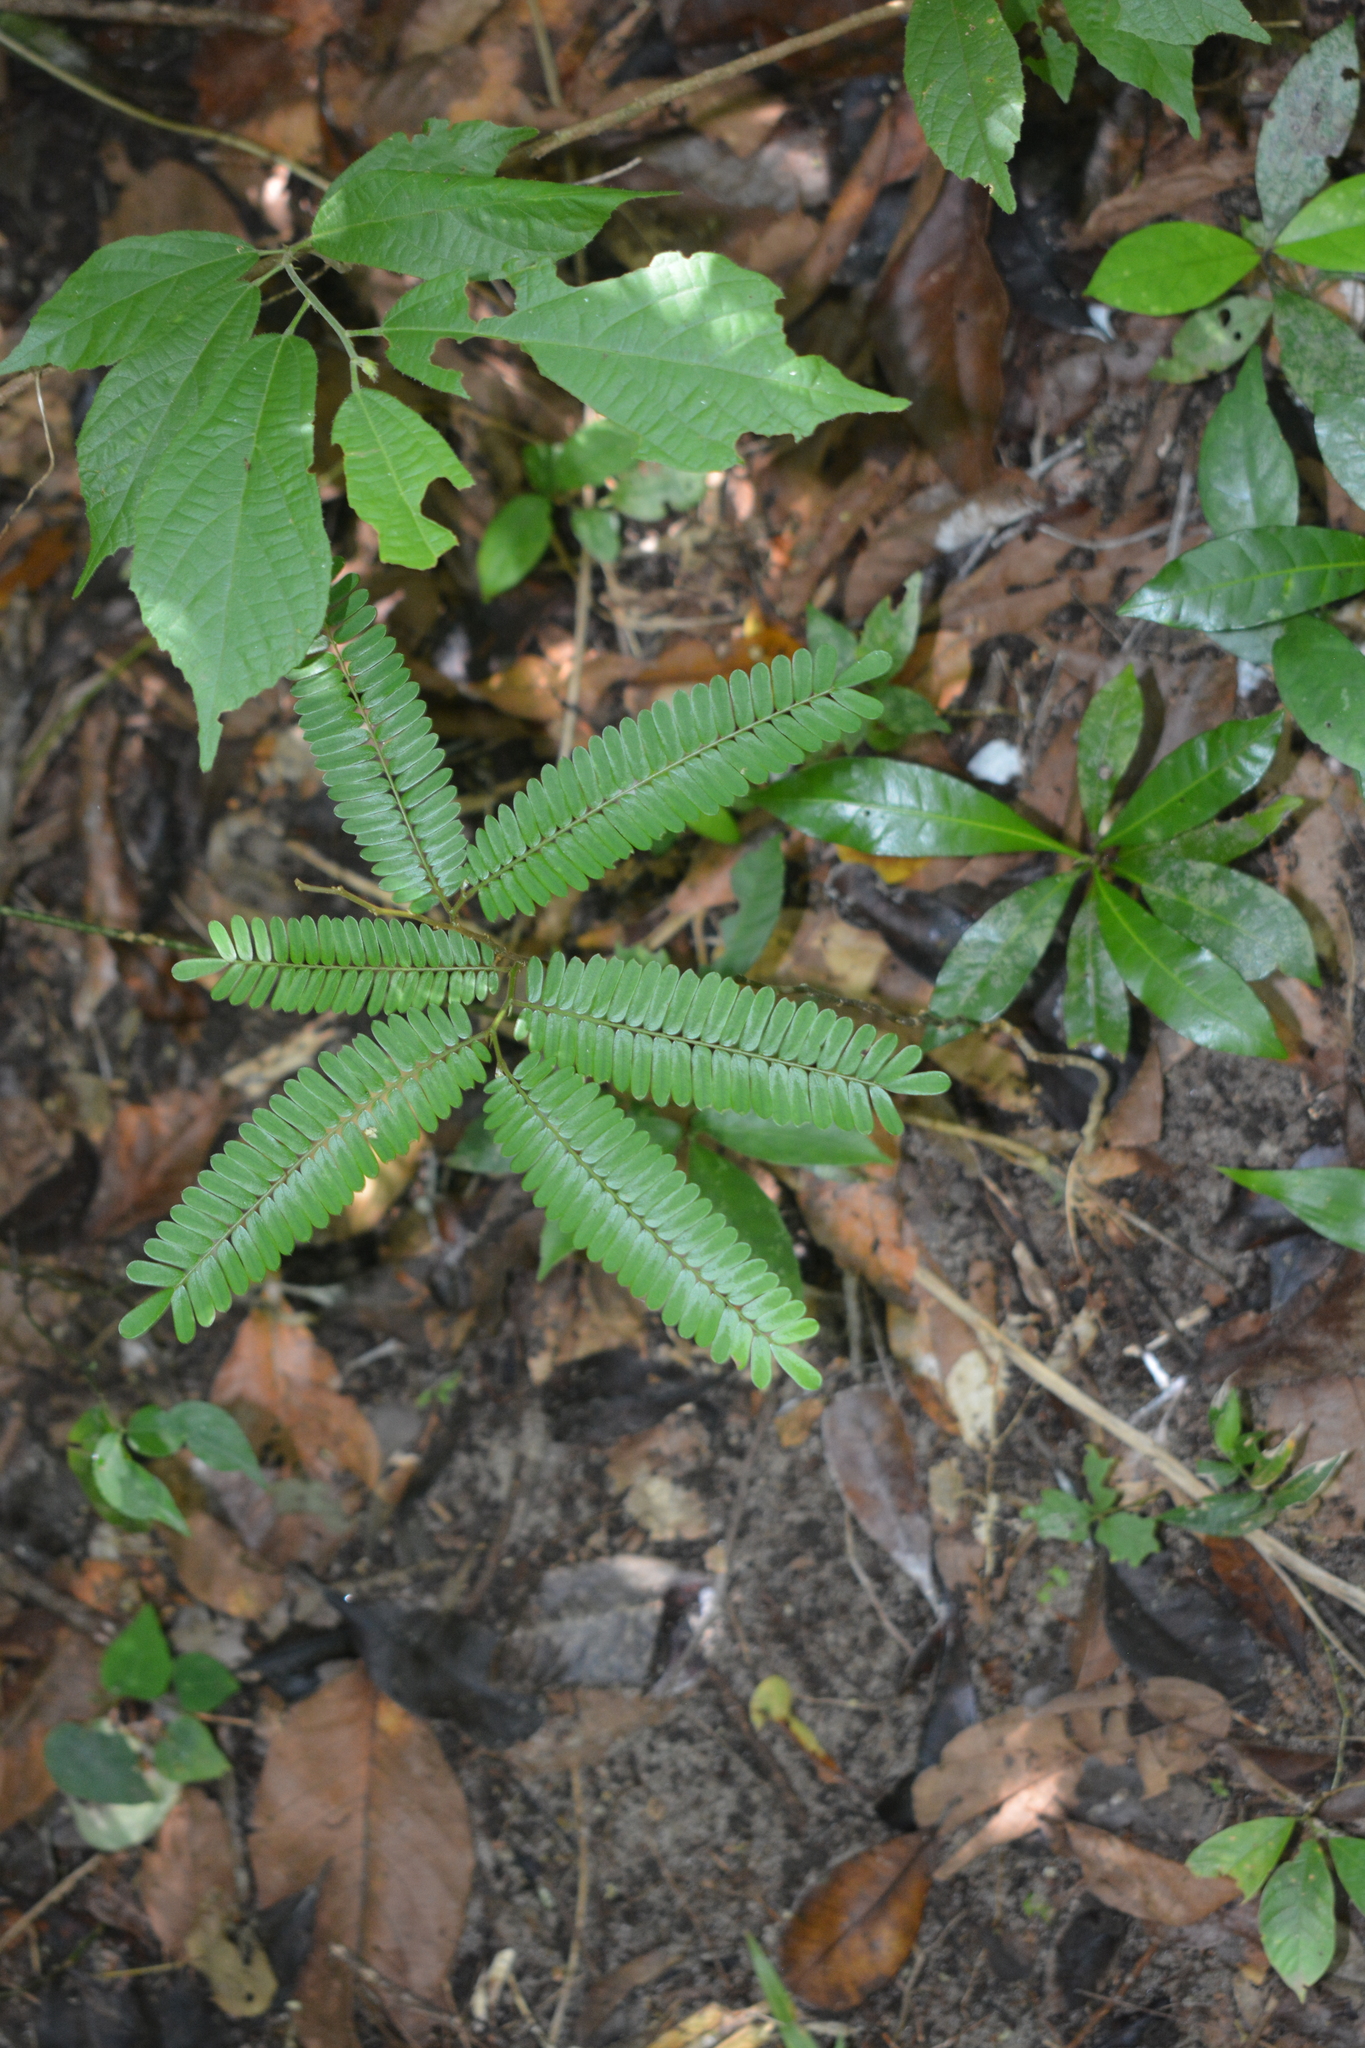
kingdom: Plantae
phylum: Tracheophyta
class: Magnoliopsida
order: Oxalidales
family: Connaraceae
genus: Rourea
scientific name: Rourea mimosoides
